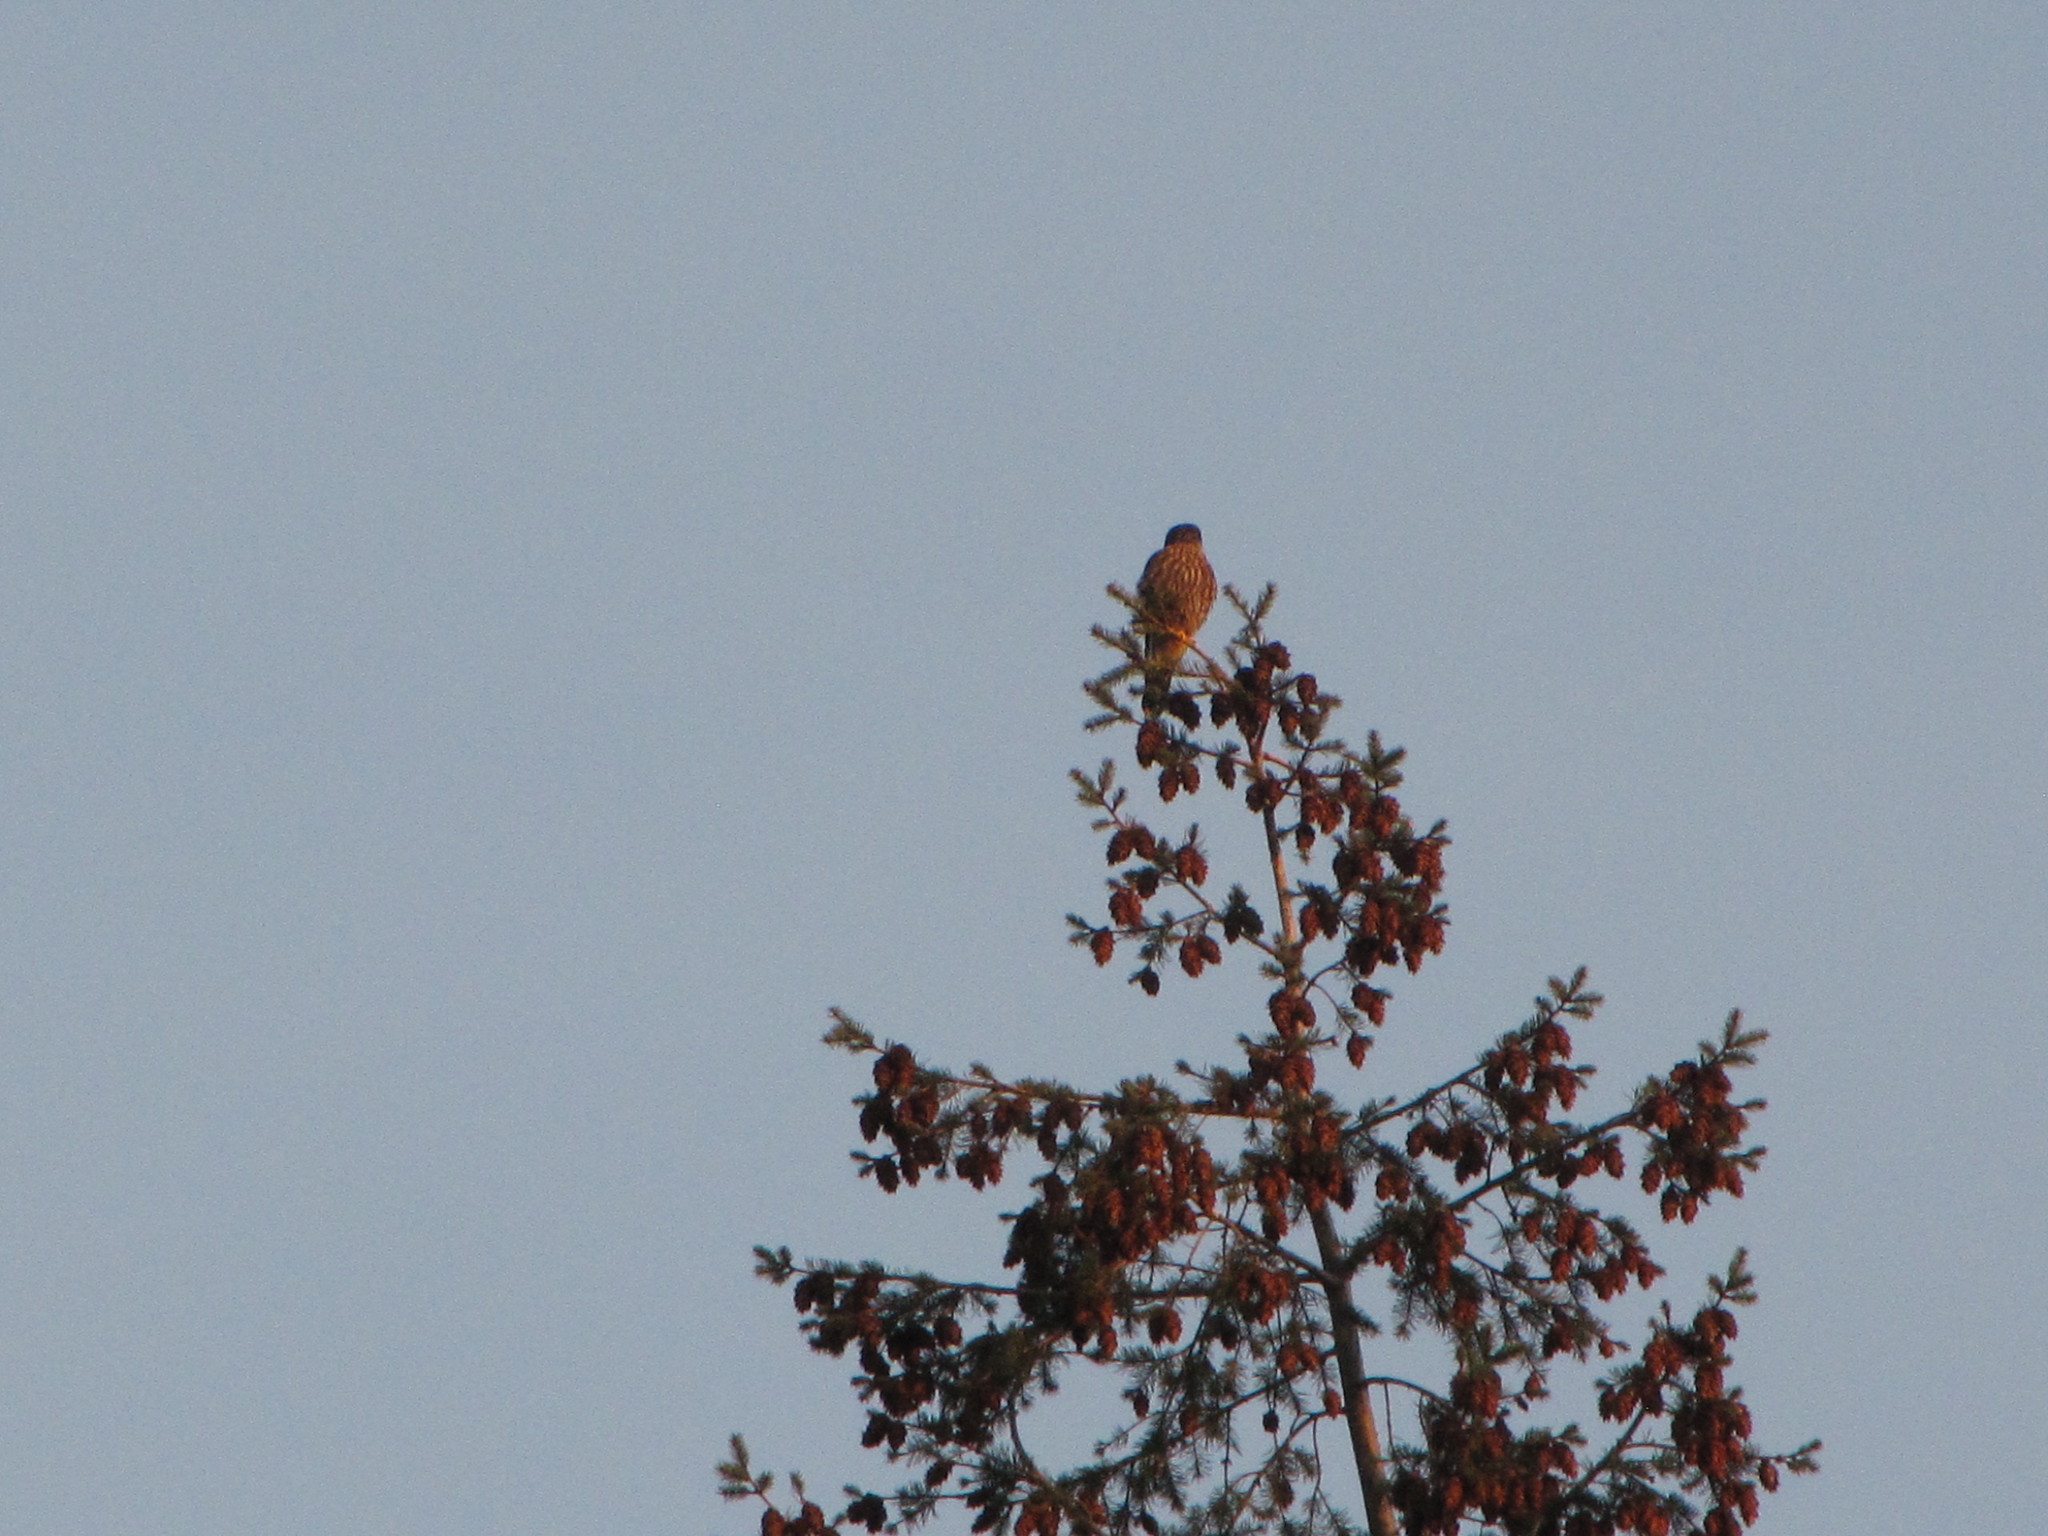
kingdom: Animalia
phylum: Chordata
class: Aves
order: Falconiformes
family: Falconidae
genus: Falco
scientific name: Falco columbarius
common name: Merlin
